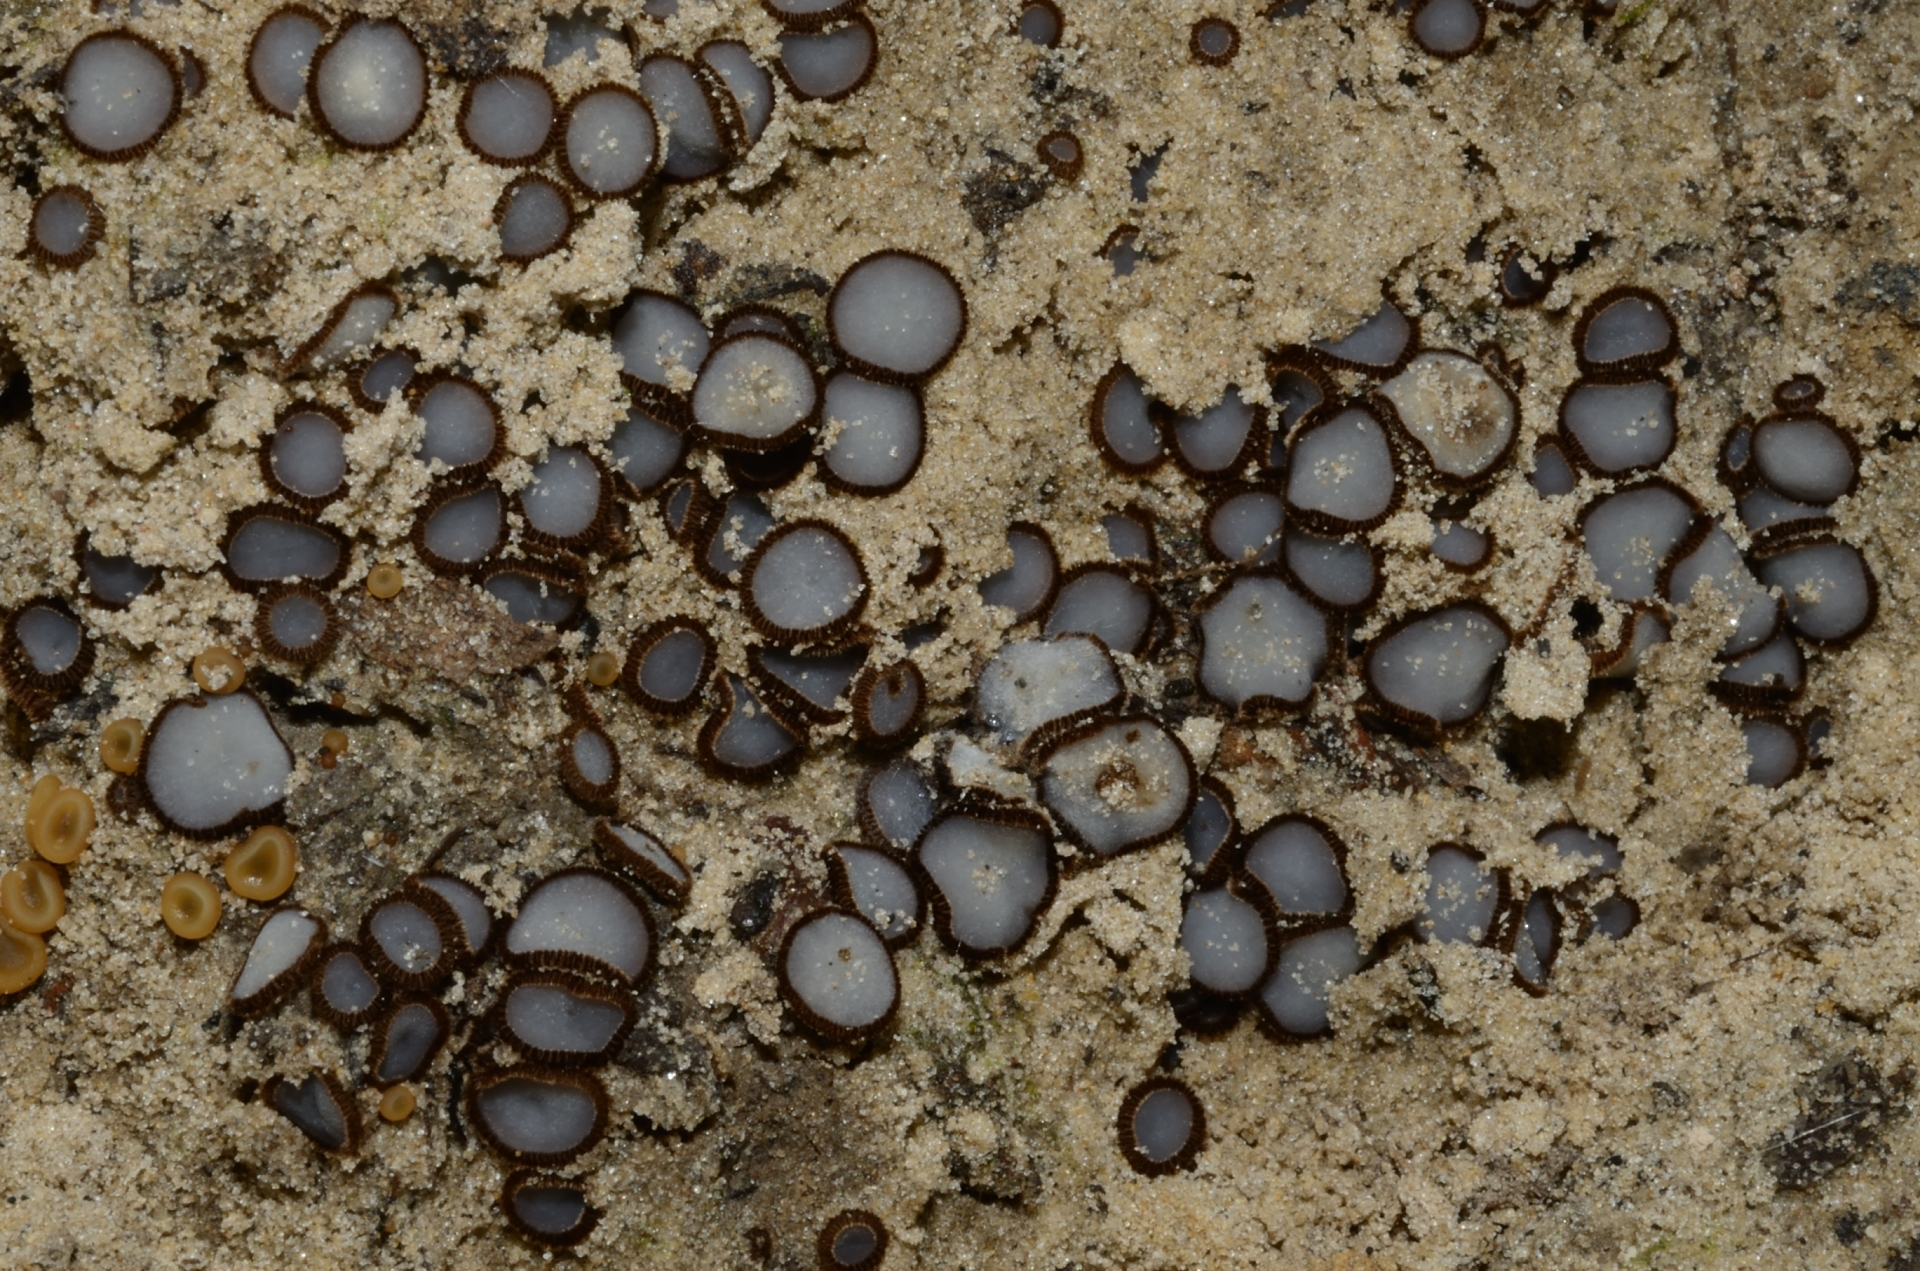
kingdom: Fungi
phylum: Ascomycota
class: Pezizomycetes
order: Pezizales
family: Pyronemataceae
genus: Trichophaea
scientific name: Trichophaea woolhopeia
